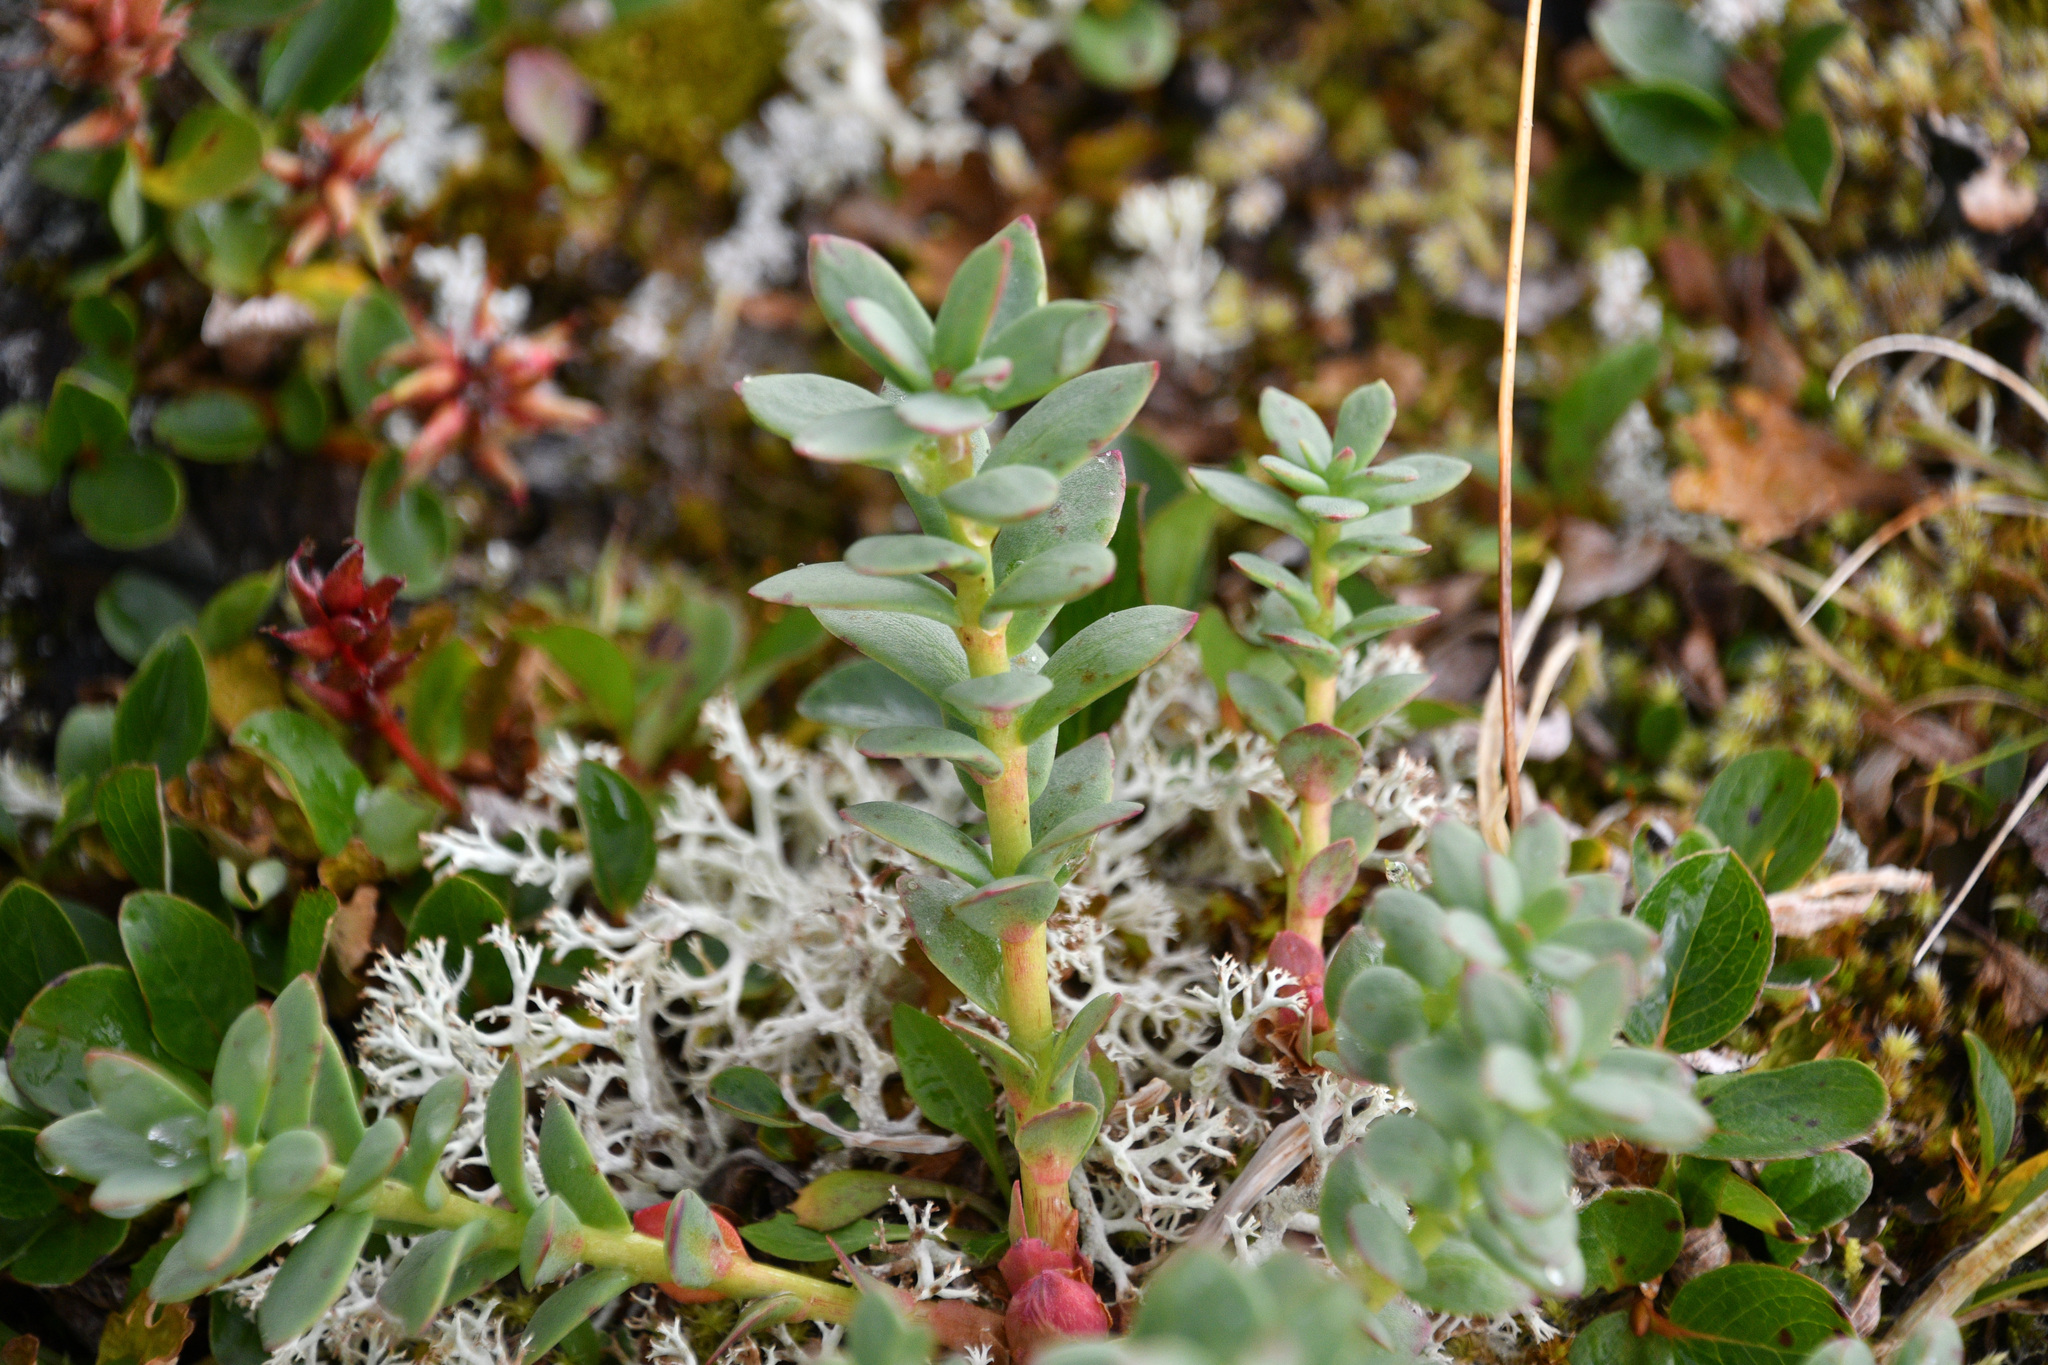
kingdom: Plantae
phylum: Tracheophyta
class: Magnoliopsida
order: Saxifragales
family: Crassulaceae
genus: Rhodiola
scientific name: Rhodiola integrifolia
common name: Western roseroot
